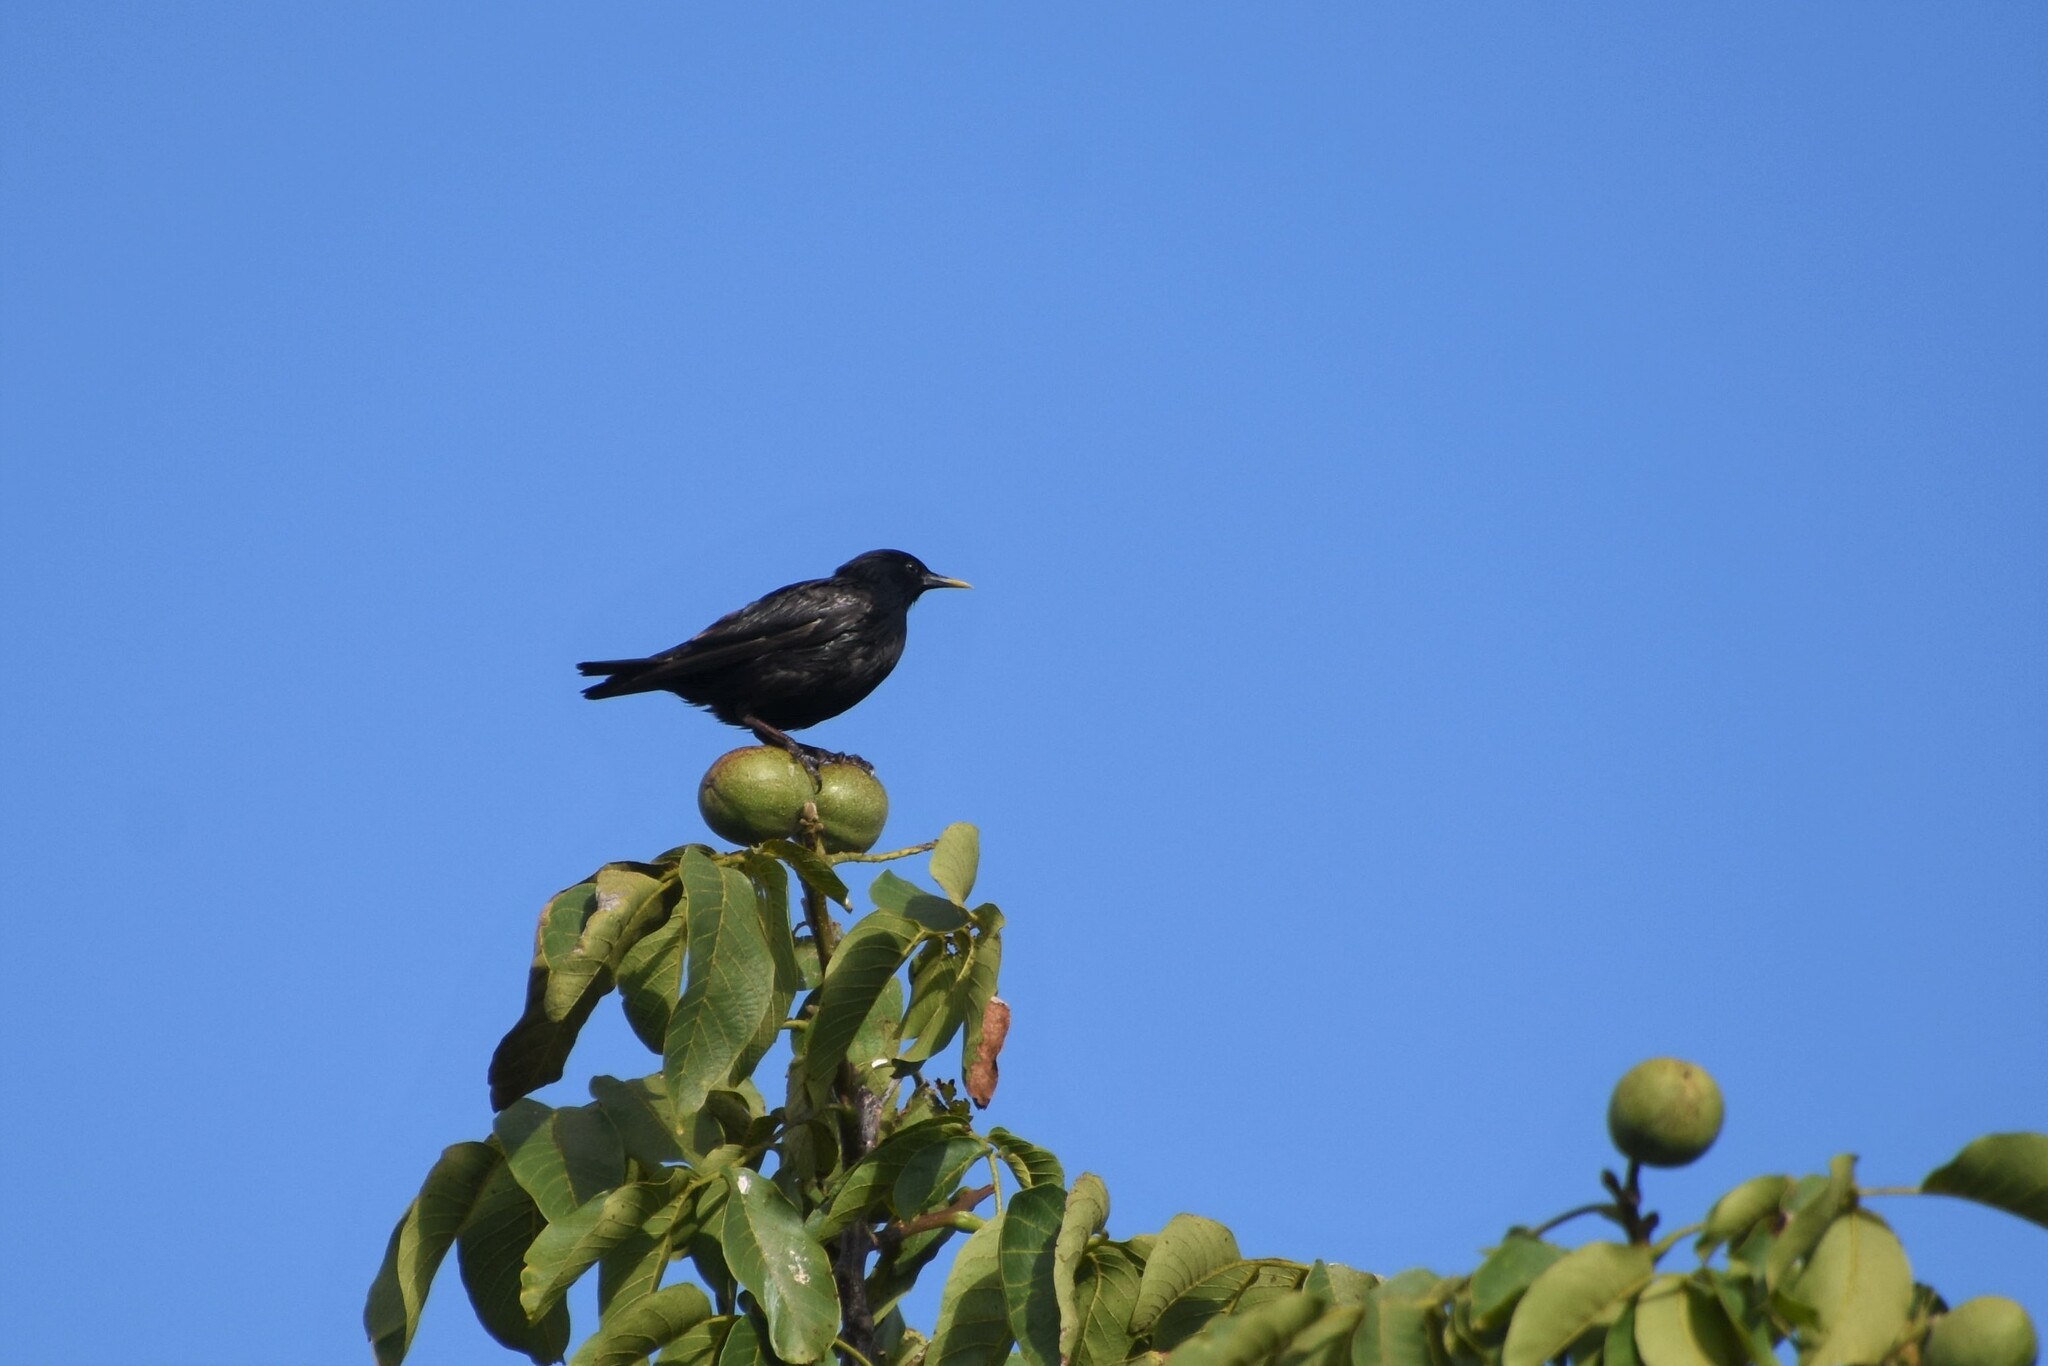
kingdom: Animalia
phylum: Chordata
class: Aves
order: Passeriformes
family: Sturnidae
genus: Sturnus
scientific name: Sturnus unicolor
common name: Spotless starling
